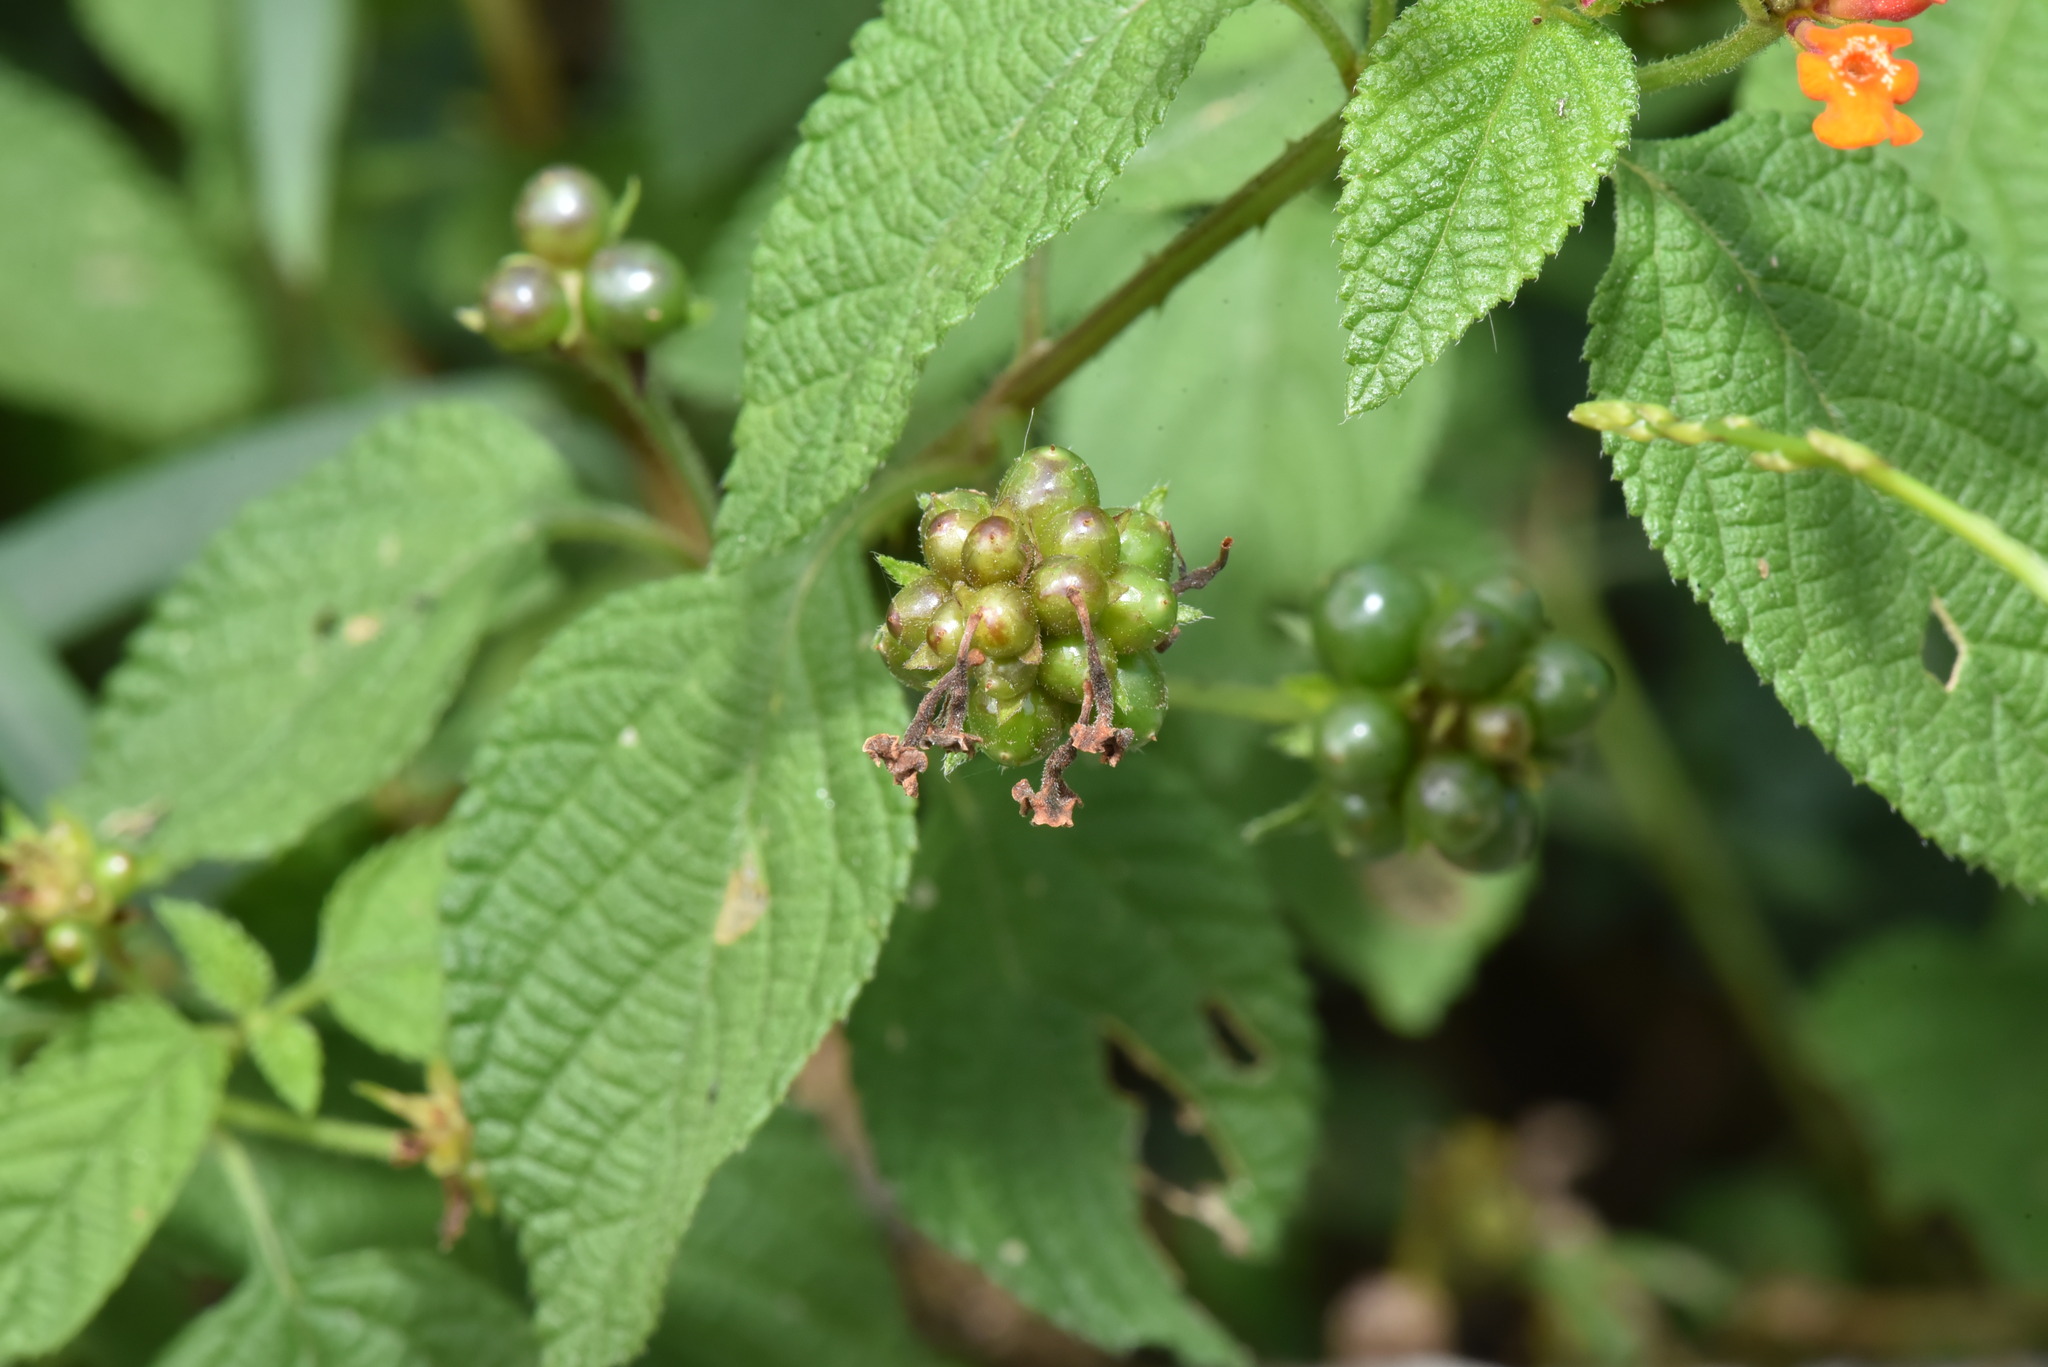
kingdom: Plantae
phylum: Tracheophyta
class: Magnoliopsida
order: Lamiales
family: Verbenaceae
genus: Lantana
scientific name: Lantana camara
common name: Lantana
